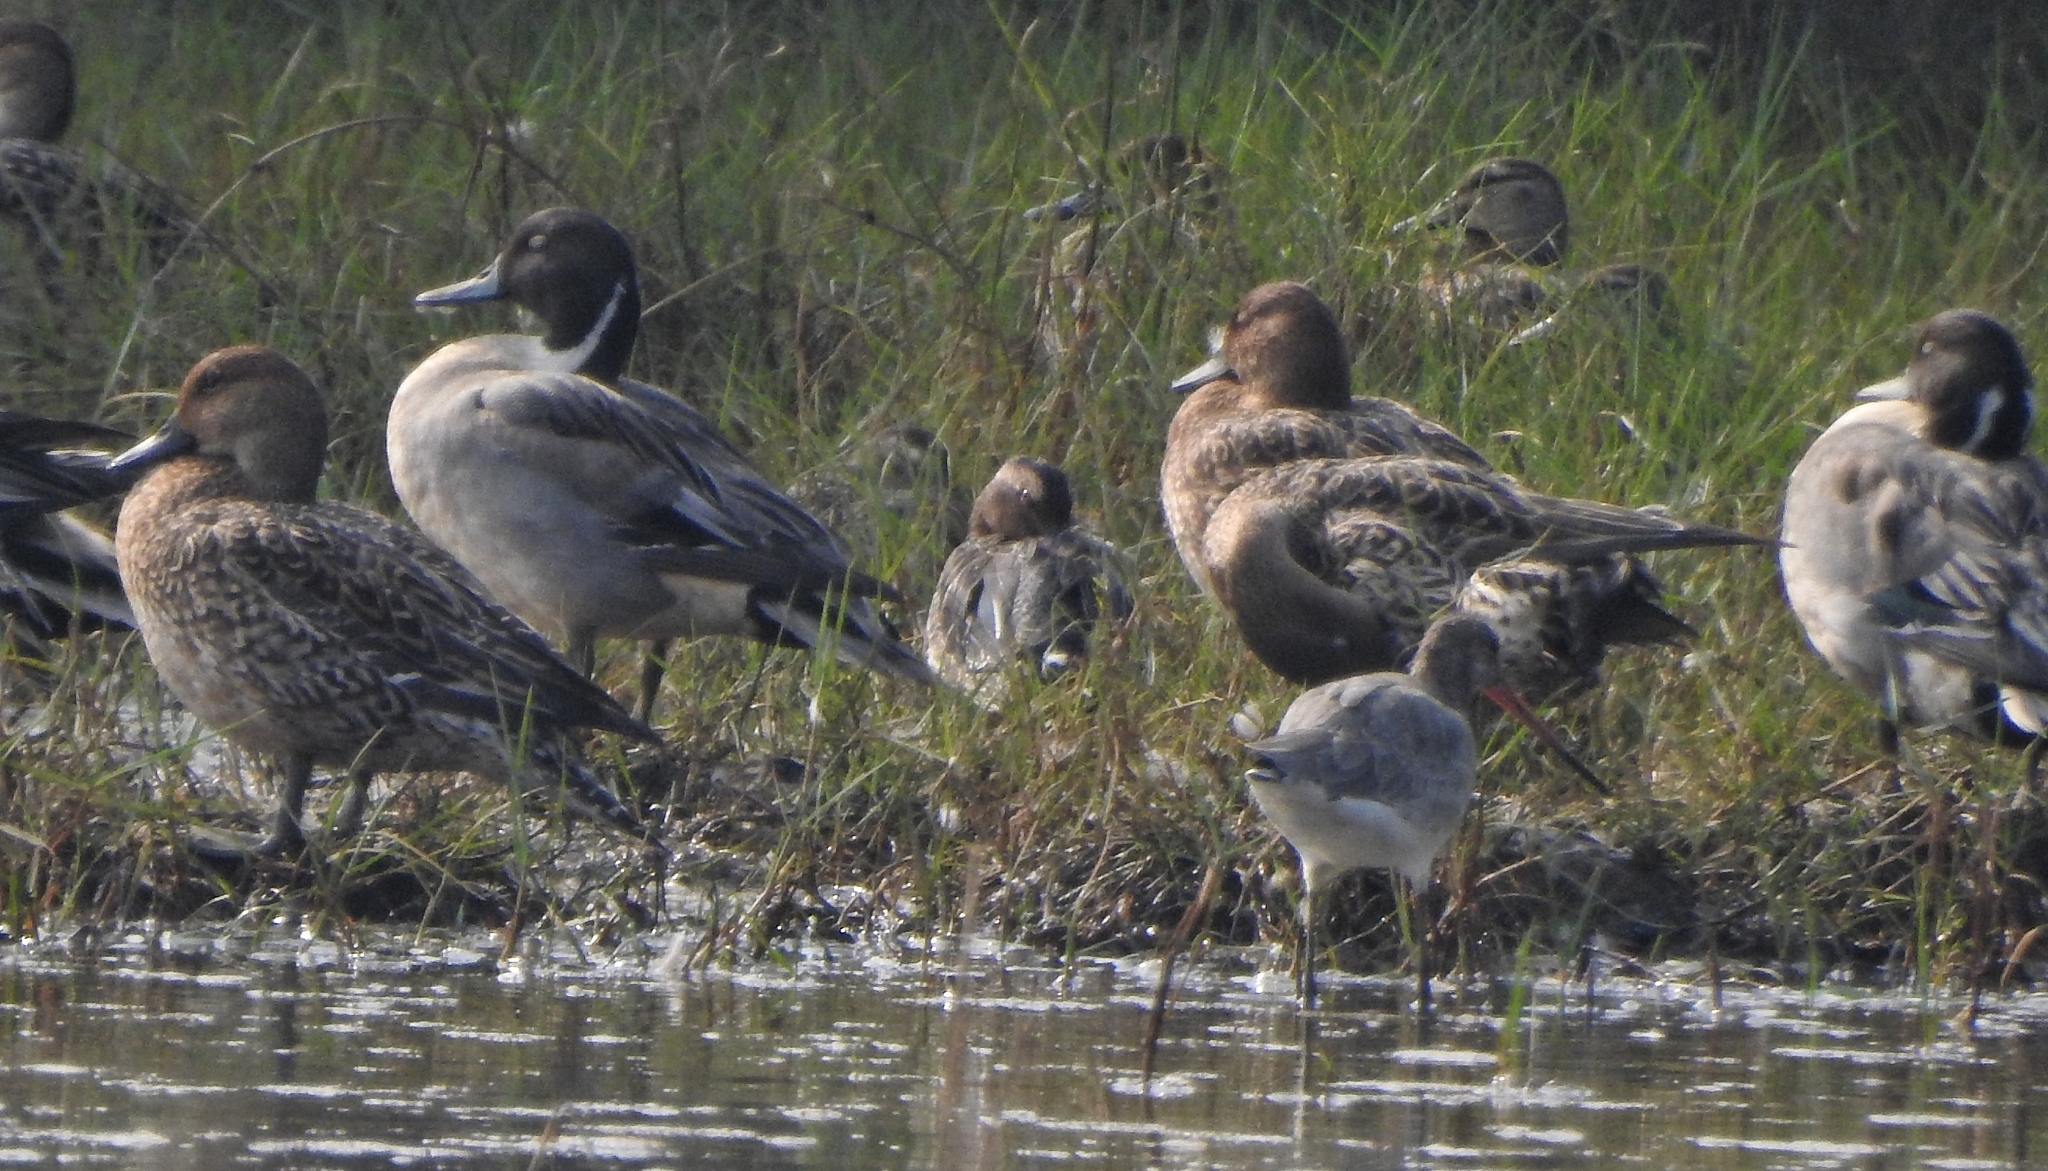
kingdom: Animalia
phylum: Chordata
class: Aves
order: Anseriformes
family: Anatidae
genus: Anas
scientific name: Anas acuta
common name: Northern pintail
